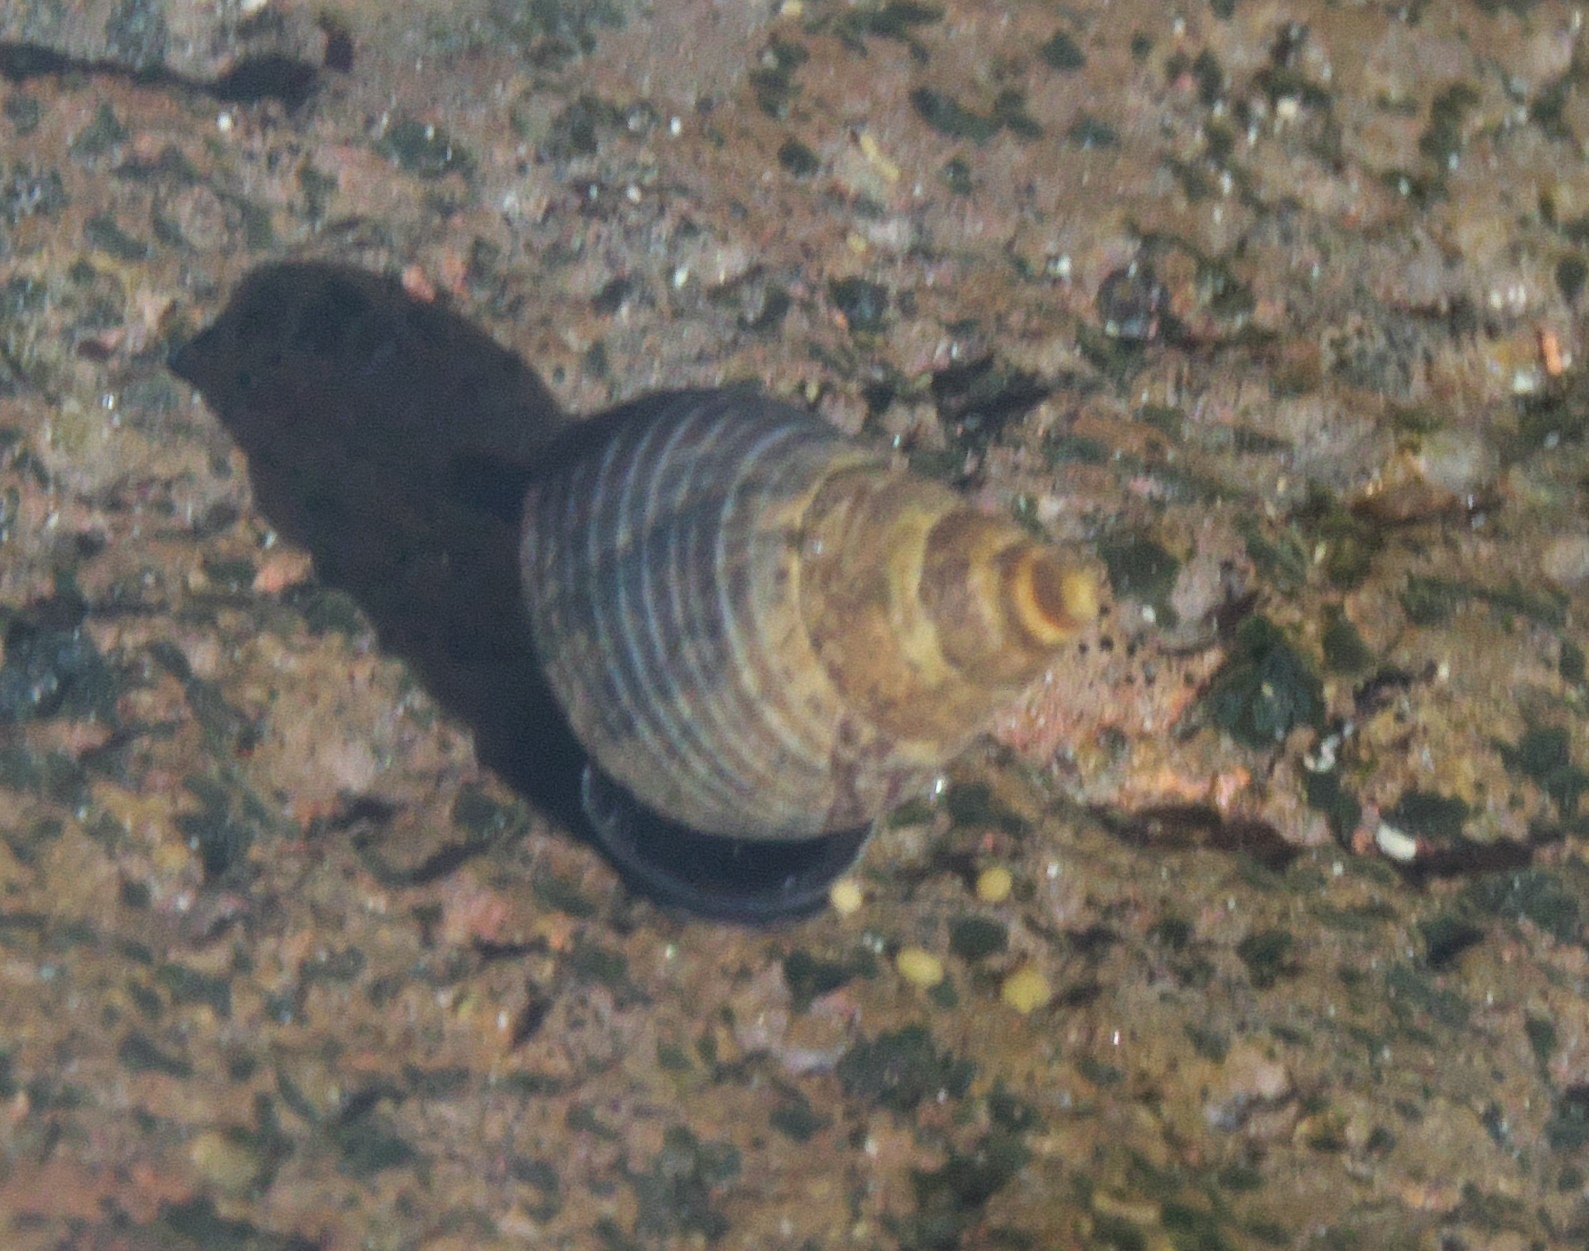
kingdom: Animalia
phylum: Mollusca
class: Gastropoda
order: Littorinimorpha
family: Littorinidae
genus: Austrolittorina
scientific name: Austrolittorina cincta
